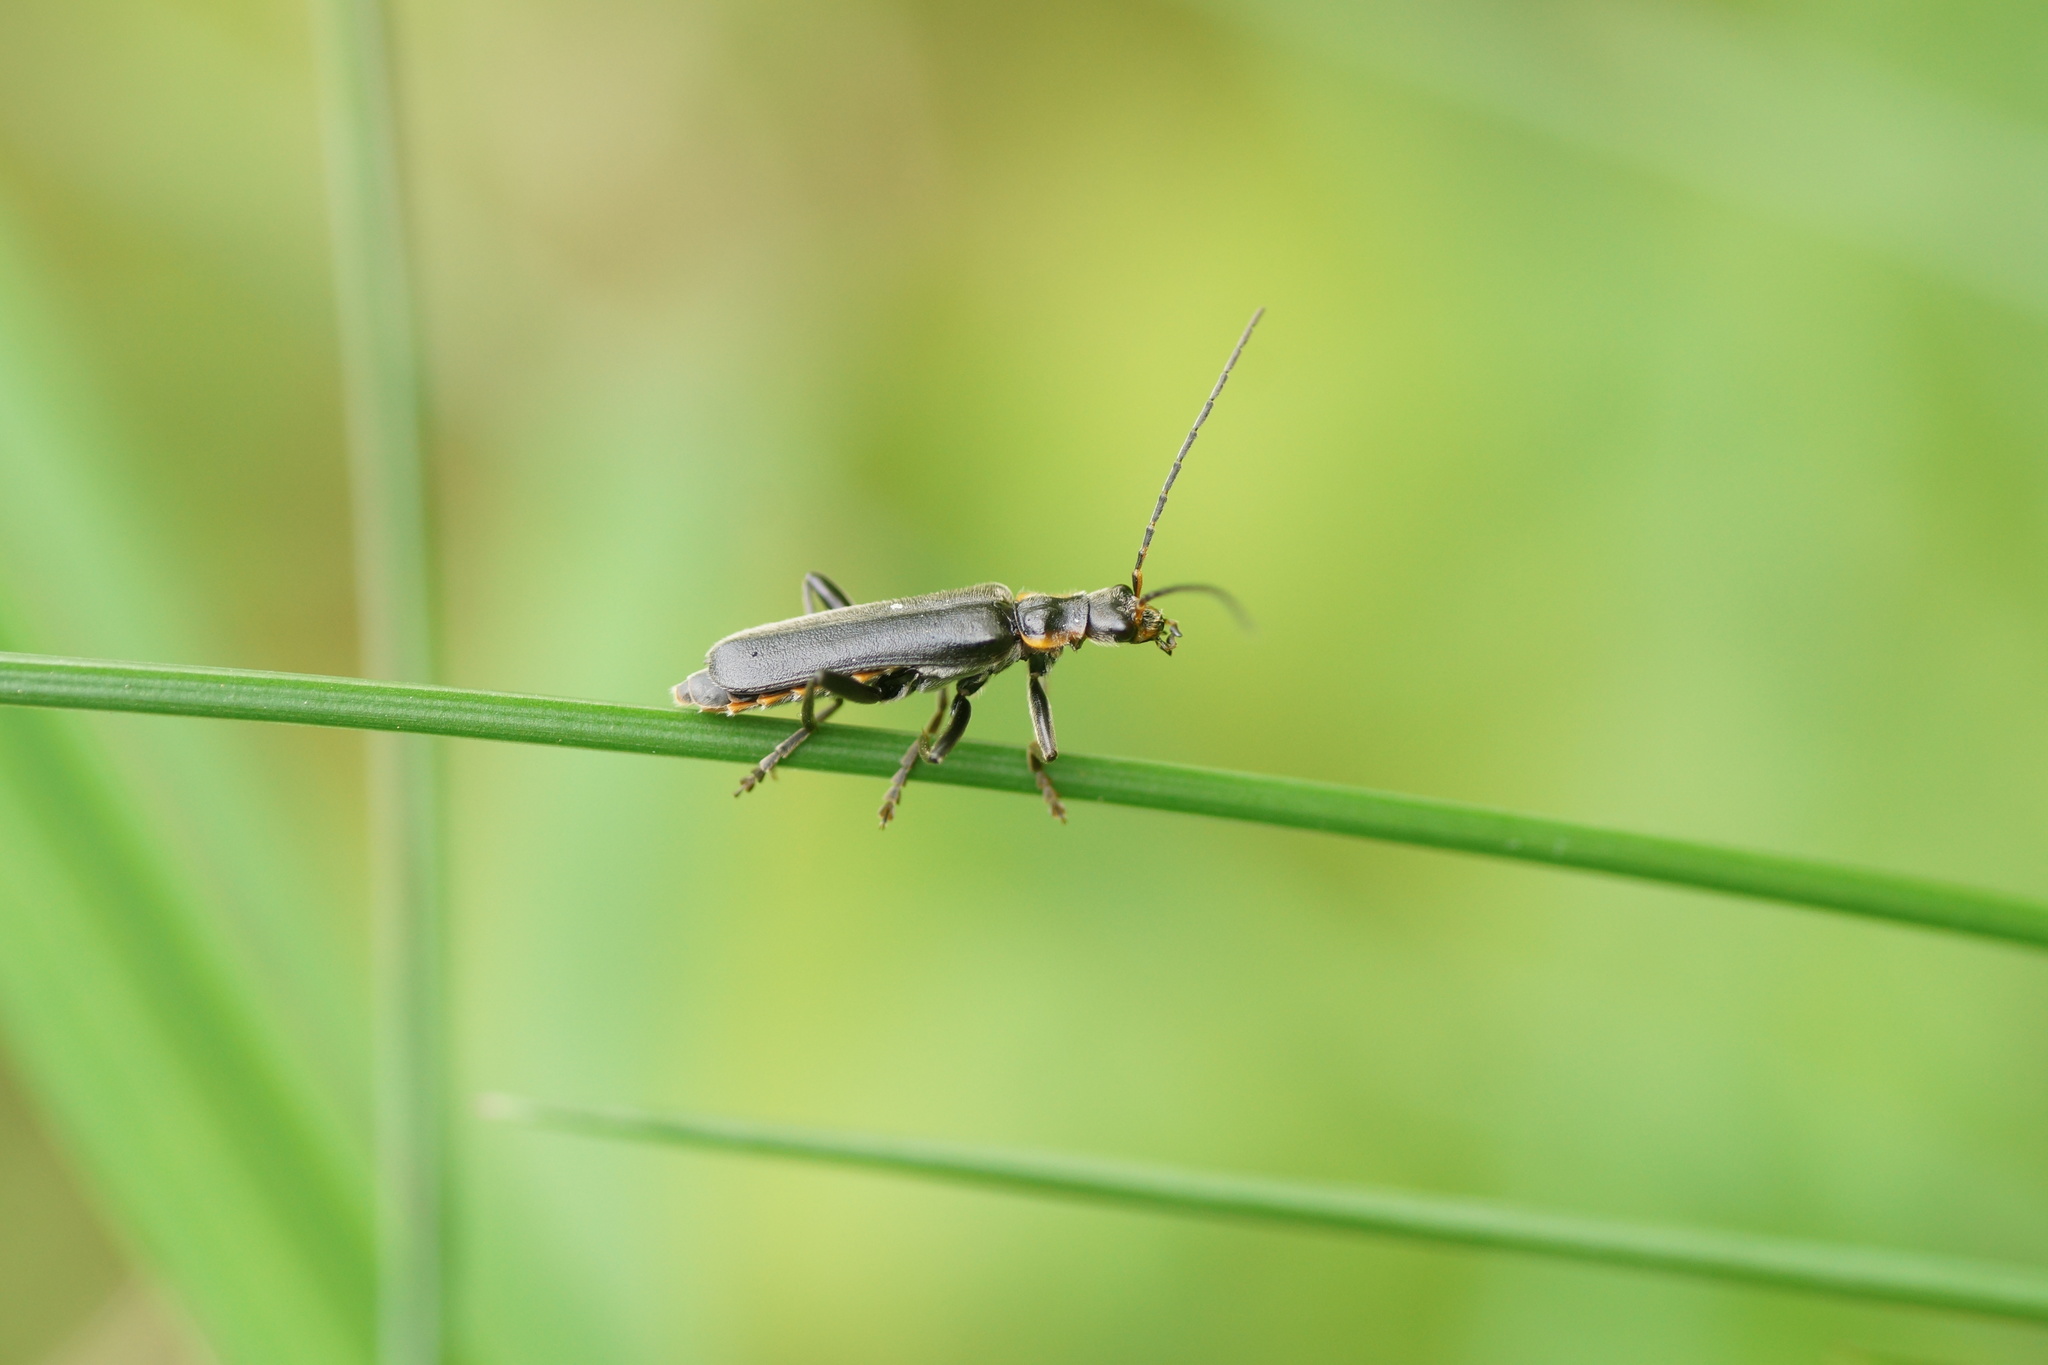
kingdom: Animalia
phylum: Arthropoda
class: Insecta
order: Coleoptera
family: Cantharidae
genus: Cantharis
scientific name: Cantharis obscura
